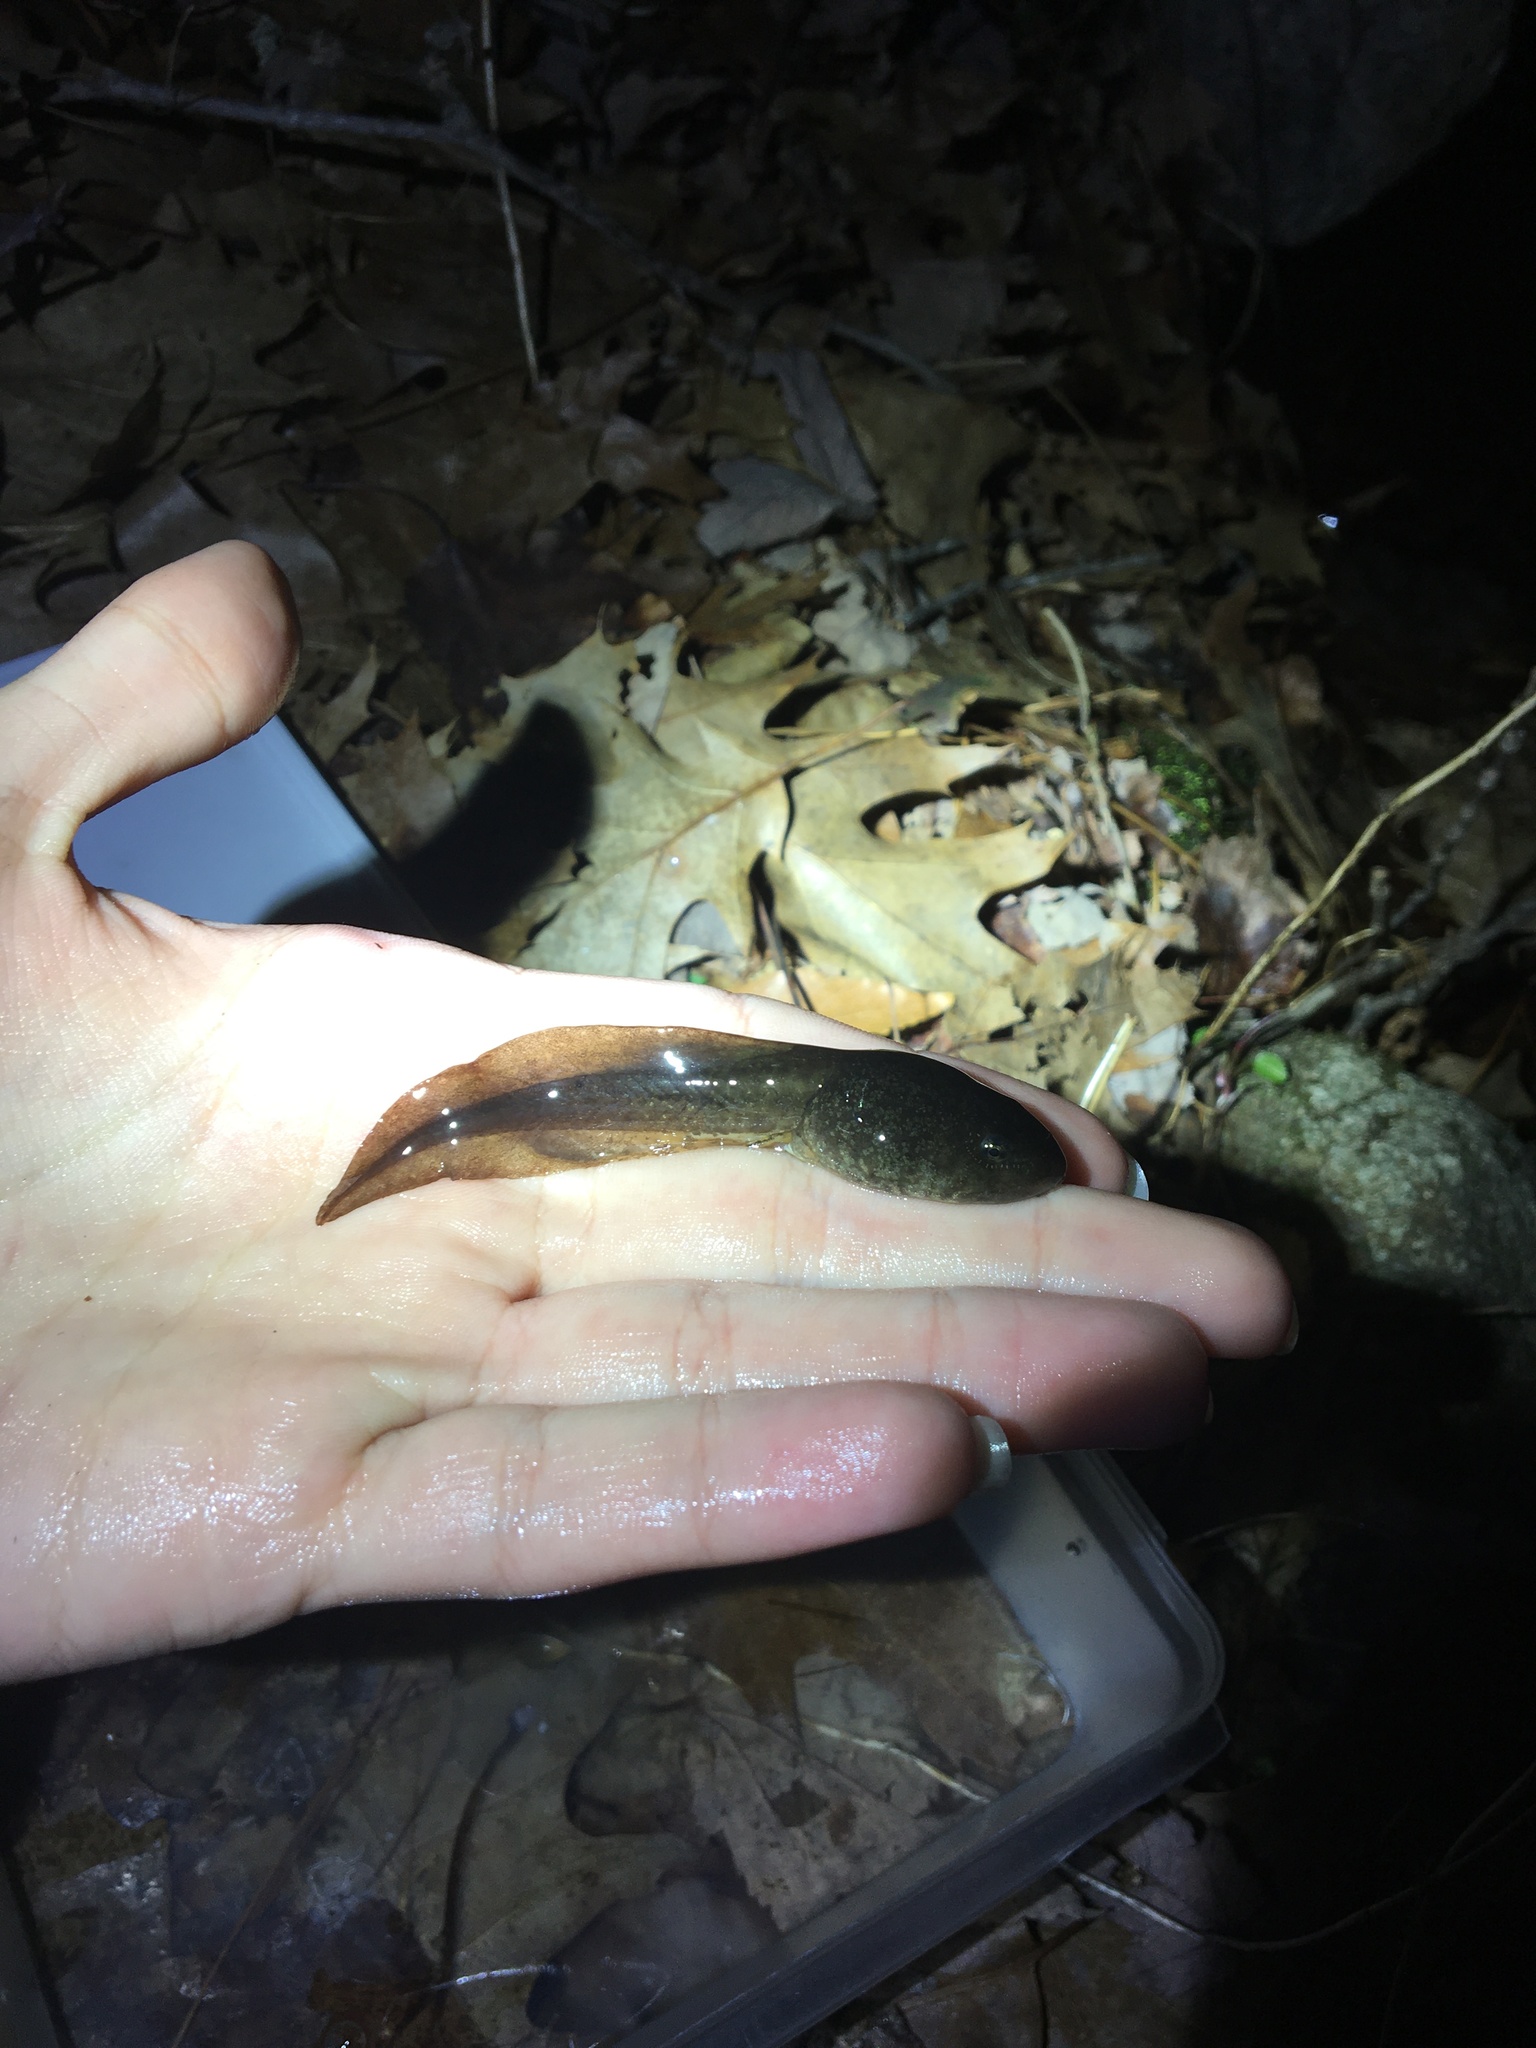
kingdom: Animalia
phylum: Chordata
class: Amphibia
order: Anura
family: Ranidae
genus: Lithobates
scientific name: Lithobates catesbeianus
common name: American bullfrog
